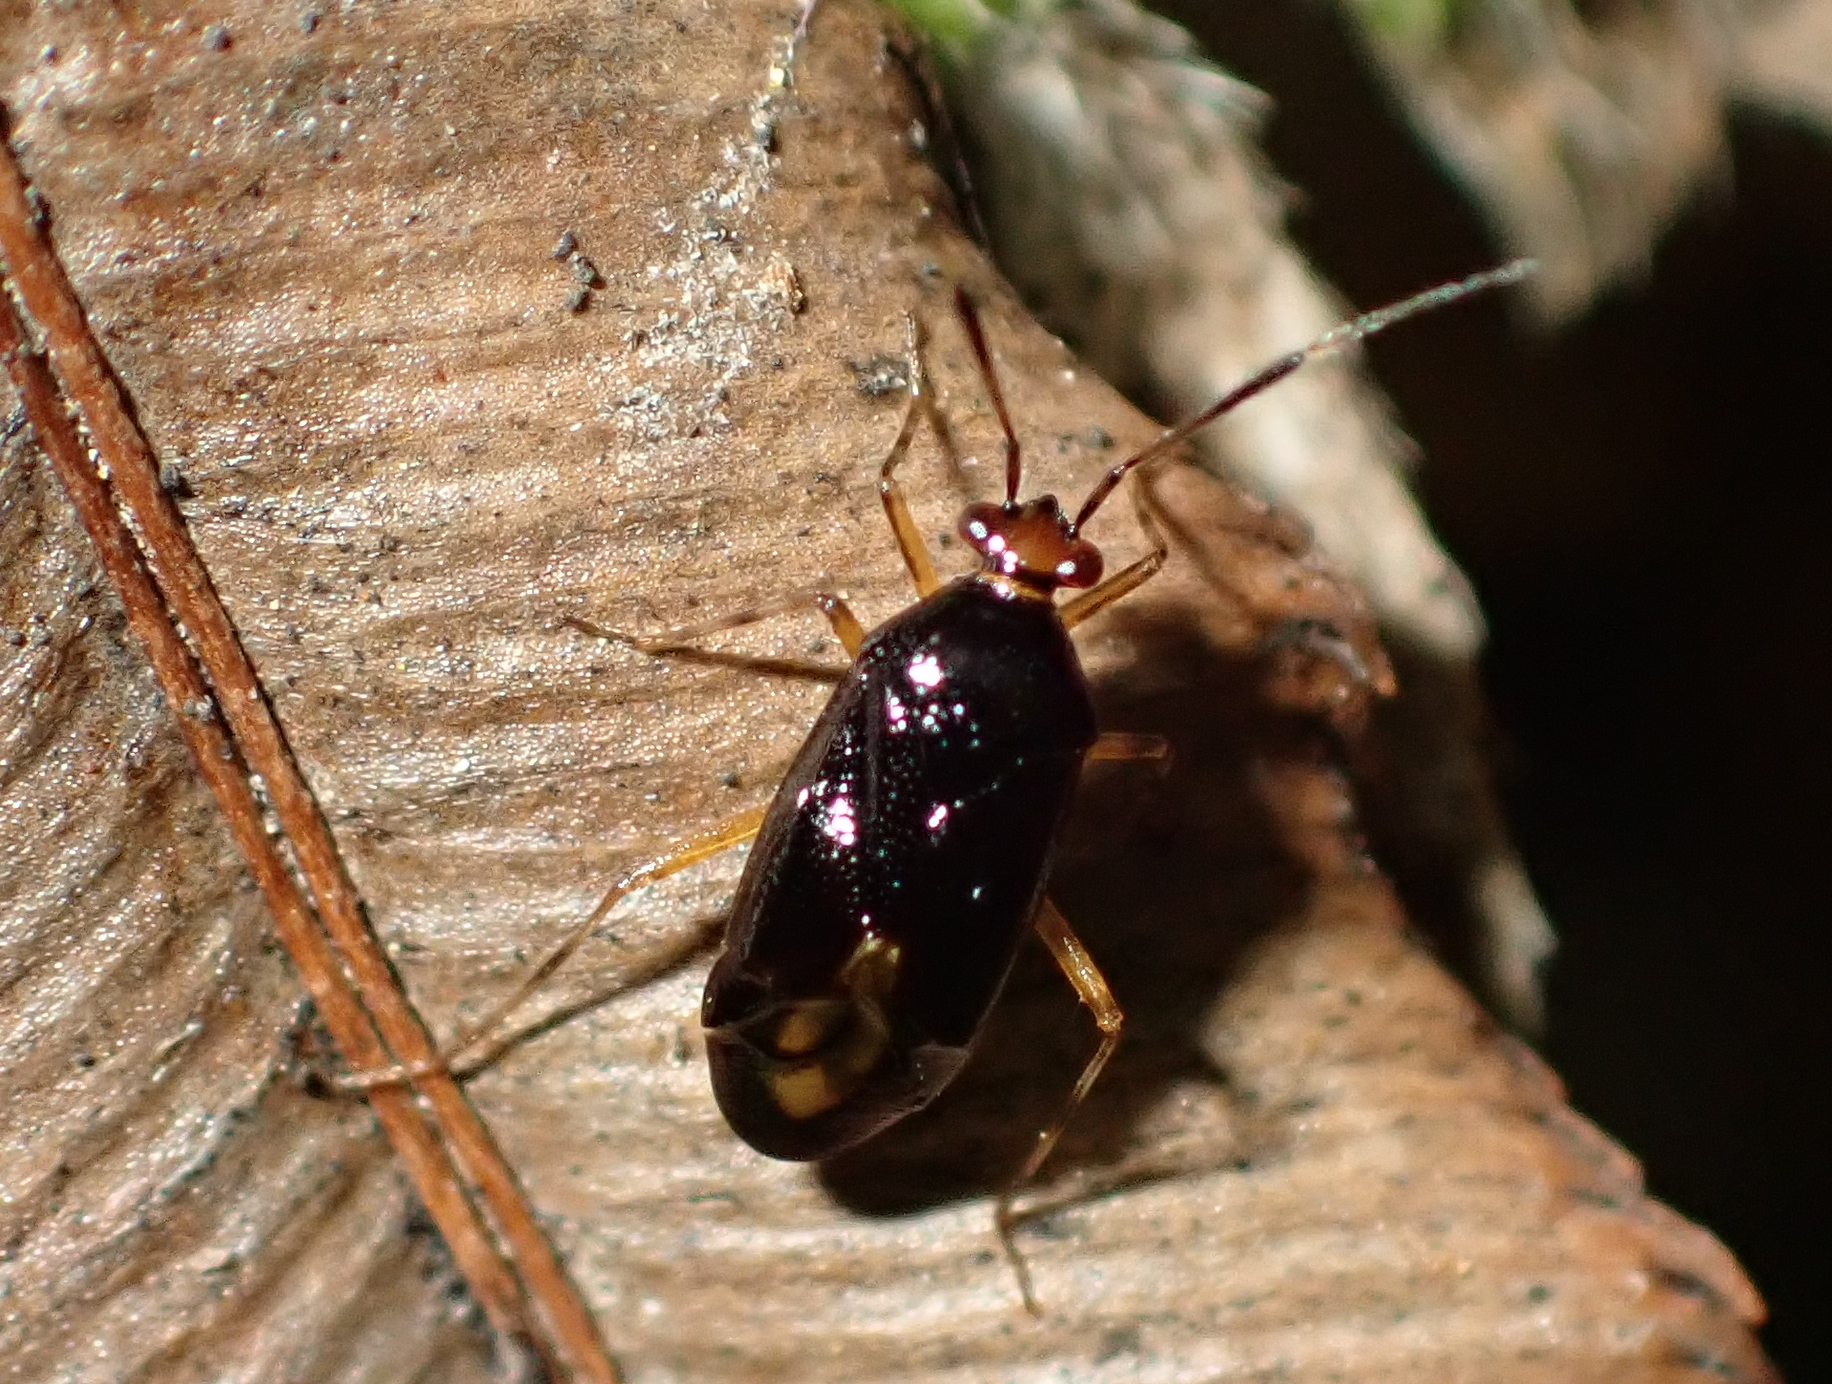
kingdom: Animalia
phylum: Arthropoda
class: Insecta
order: Hemiptera
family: Miridae
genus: Deraeocoris
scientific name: Deraeocoris maoricus
